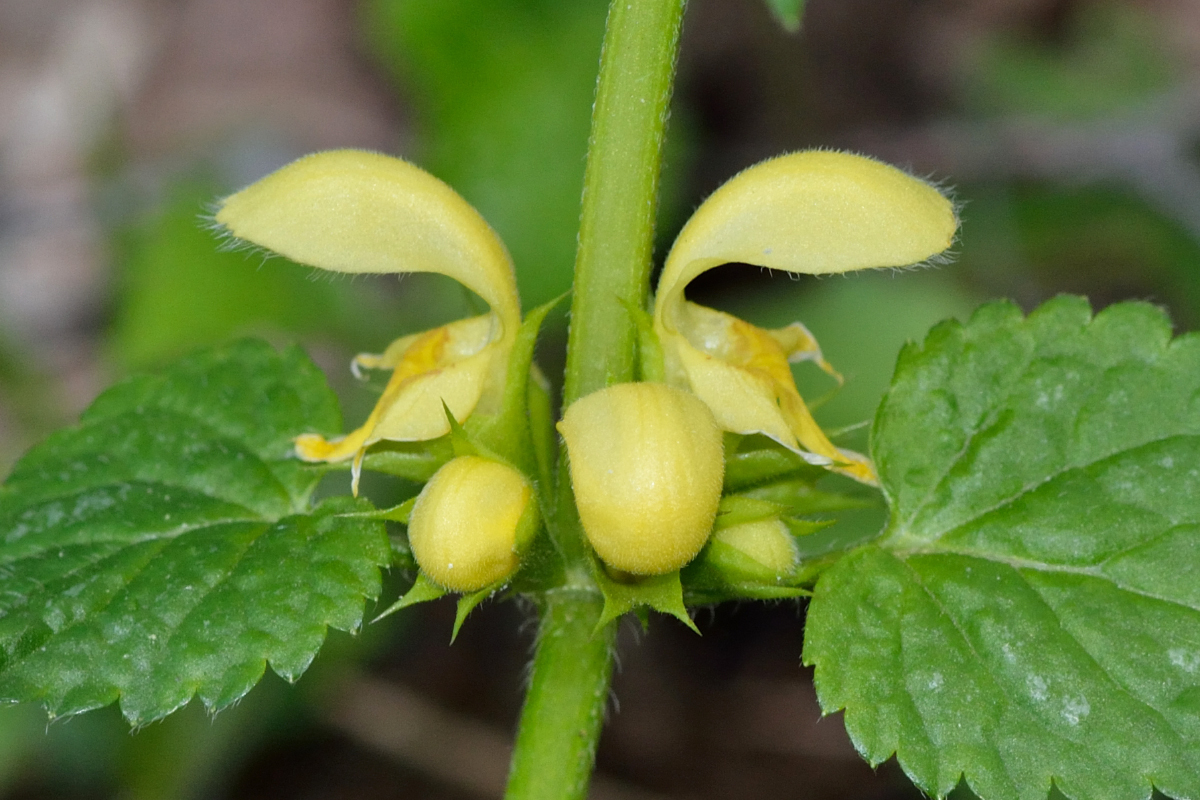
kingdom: Plantae
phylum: Tracheophyta
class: Magnoliopsida
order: Lamiales
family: Lamiaceae
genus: Lamium
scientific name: Lamium galeobdolon
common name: Yellow archangel
